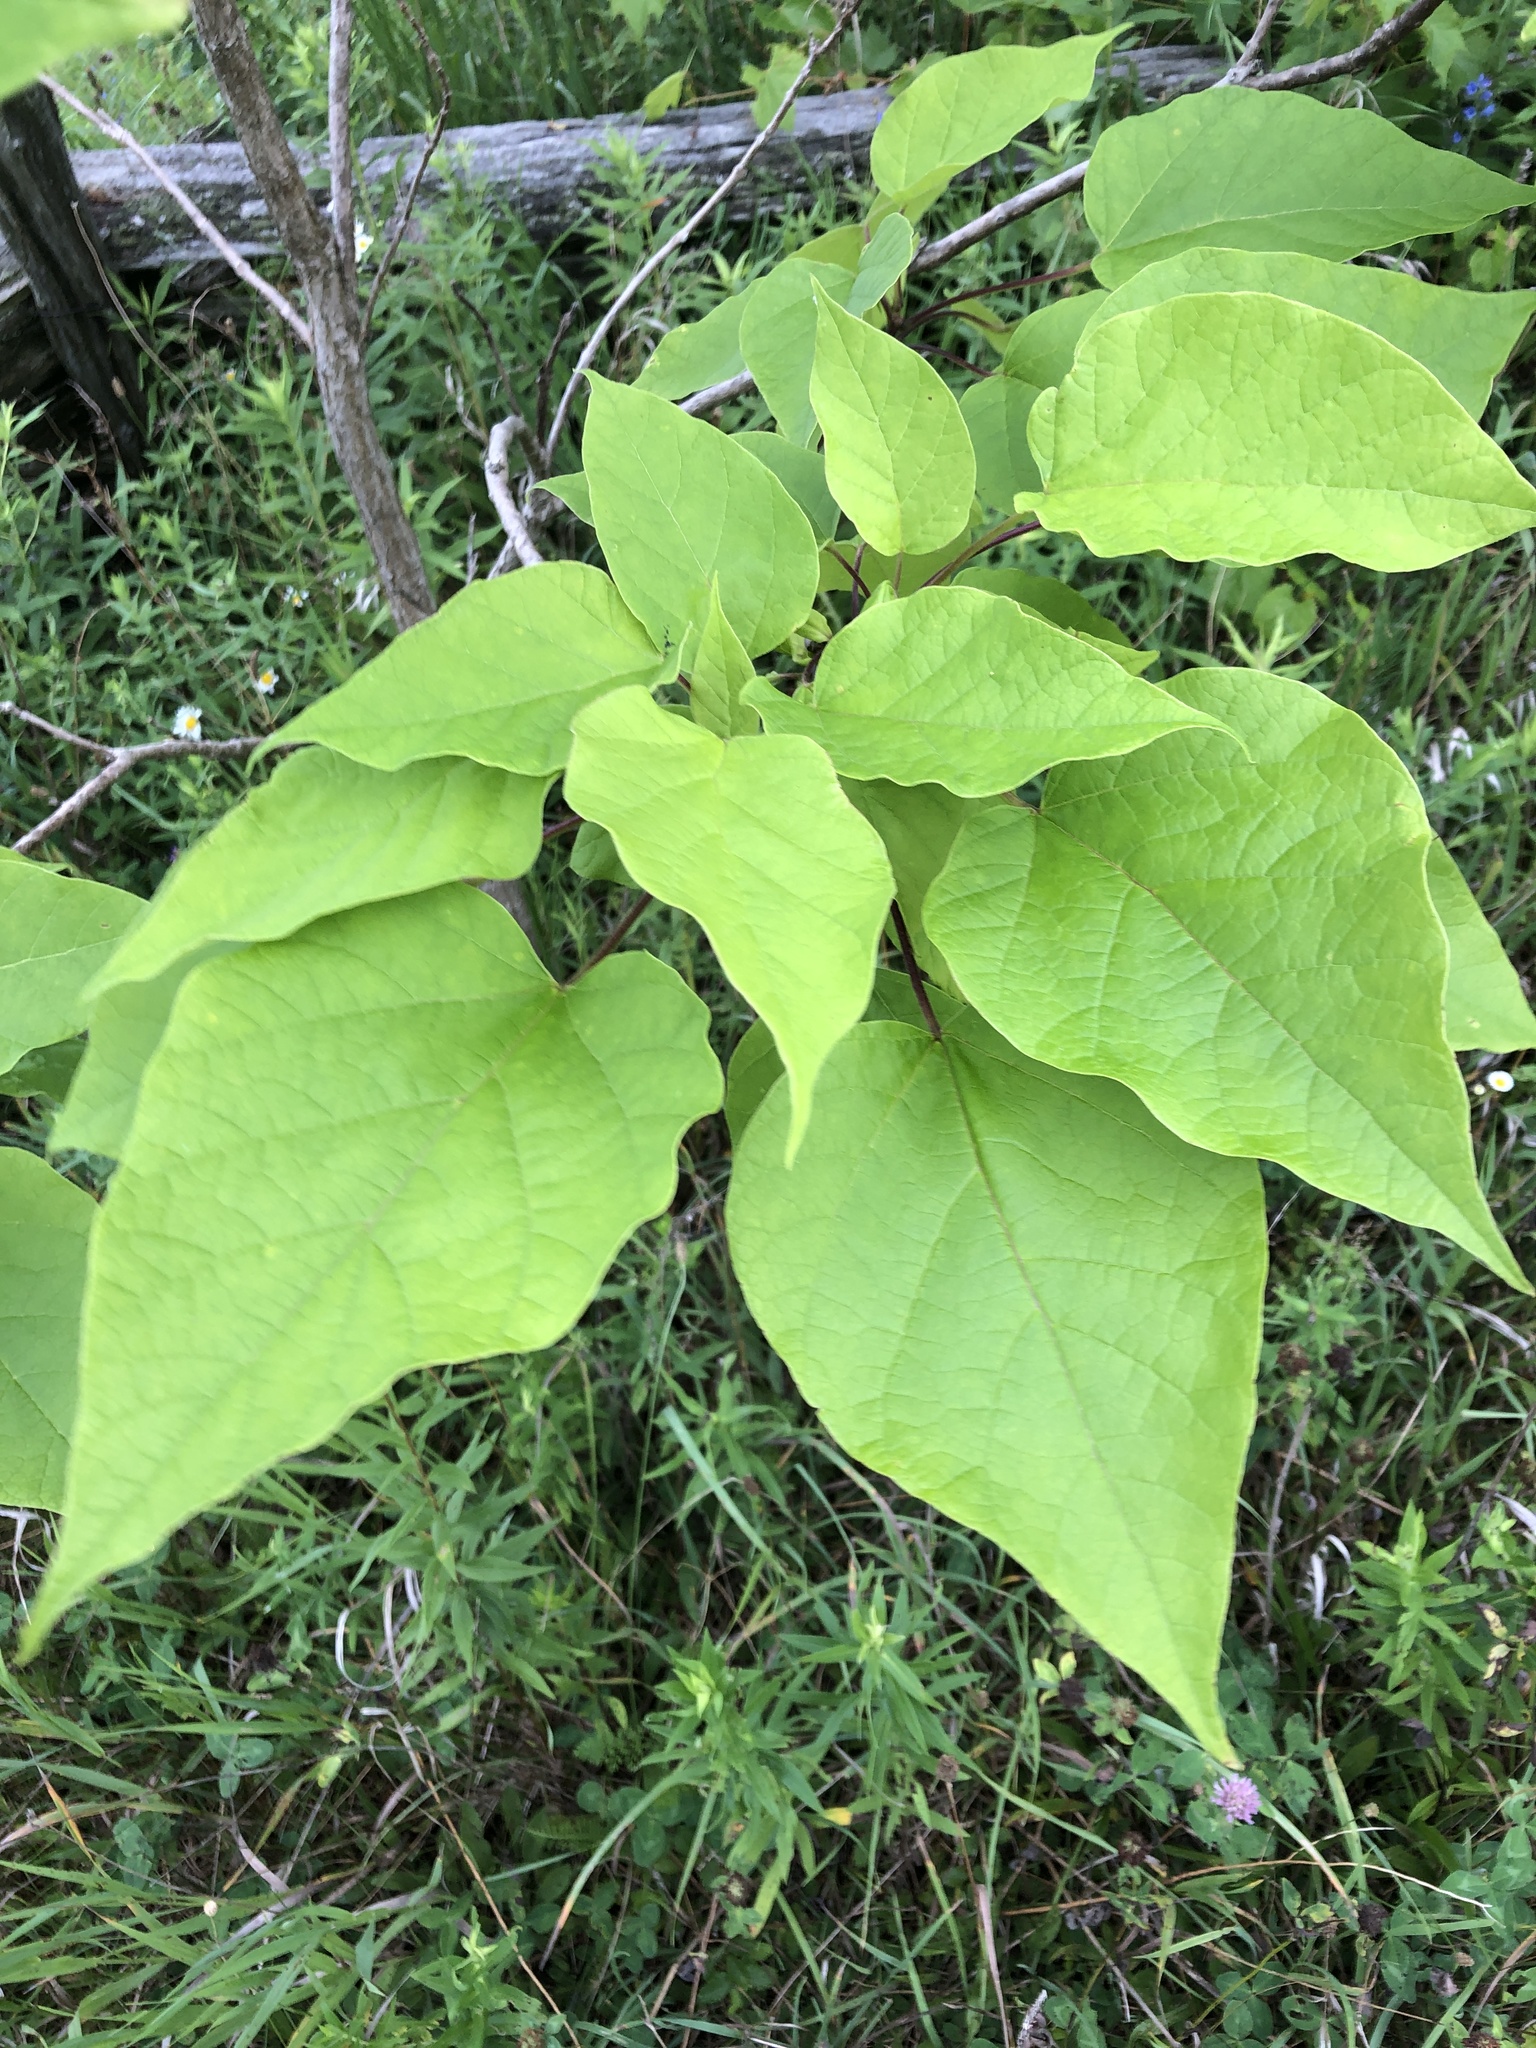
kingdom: Plantae
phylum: Tracheophyta
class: Magnoliopsida
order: Lamiales
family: Bignoniaceae
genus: Catalpa
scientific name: Catalpa speciosa
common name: Northern catalpa
